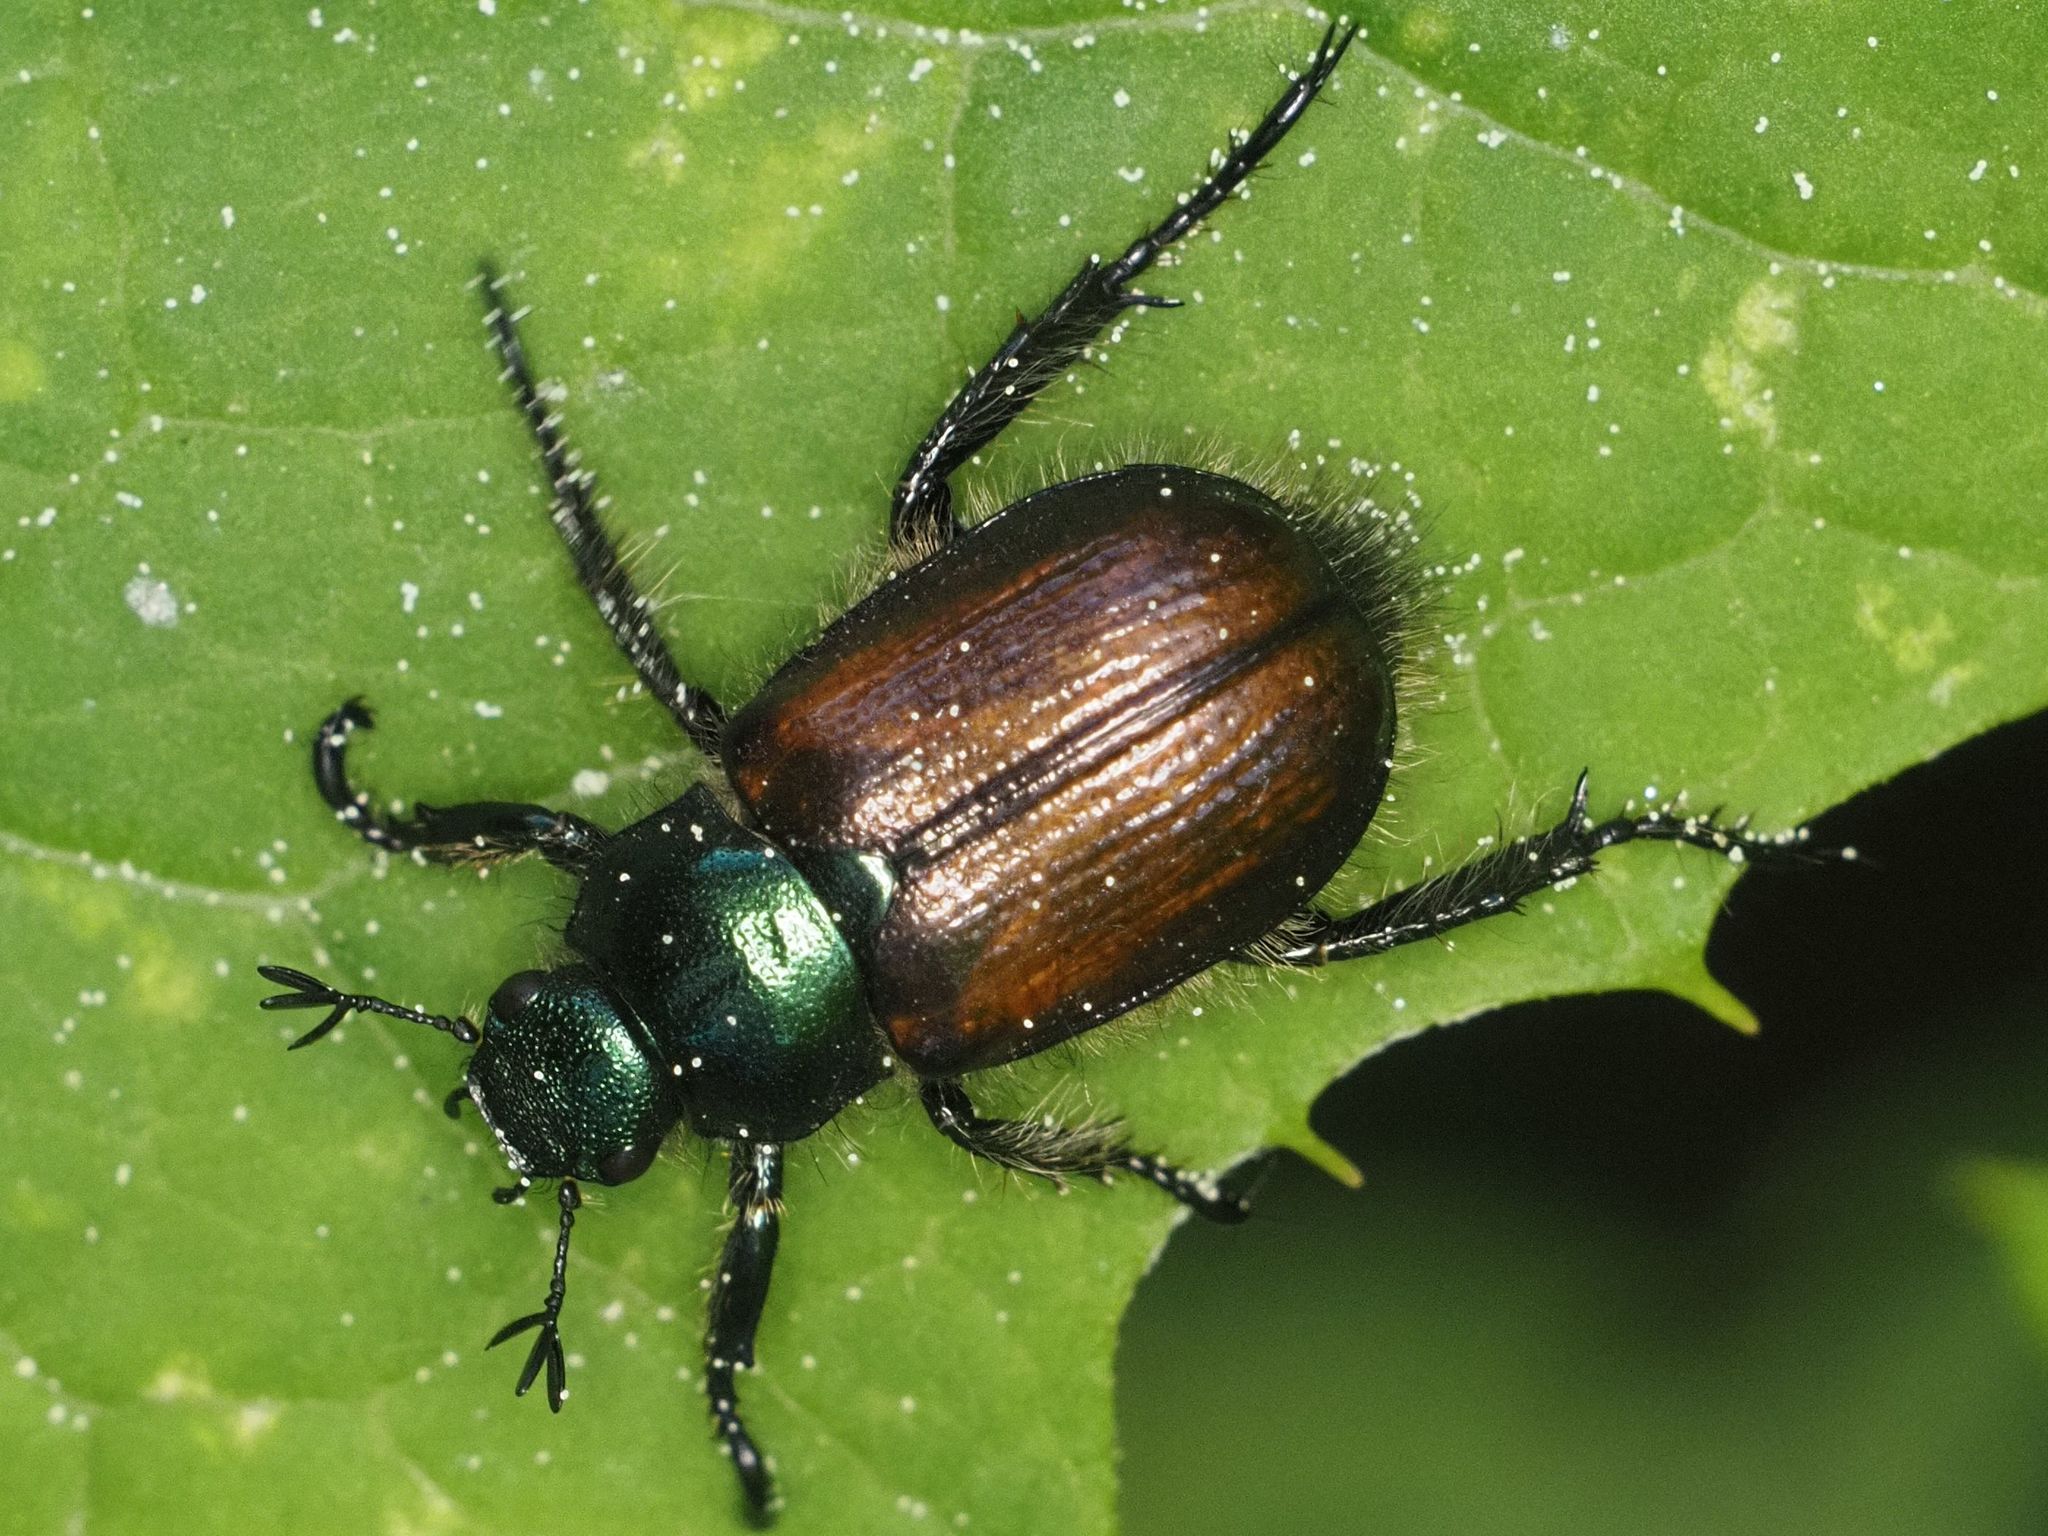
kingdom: Animalia
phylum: Arthropoda
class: Insecta
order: Coleoptera
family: Scarabaeidae
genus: Phyllopertha
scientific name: Phyllopertha horticola
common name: Garden chafer
